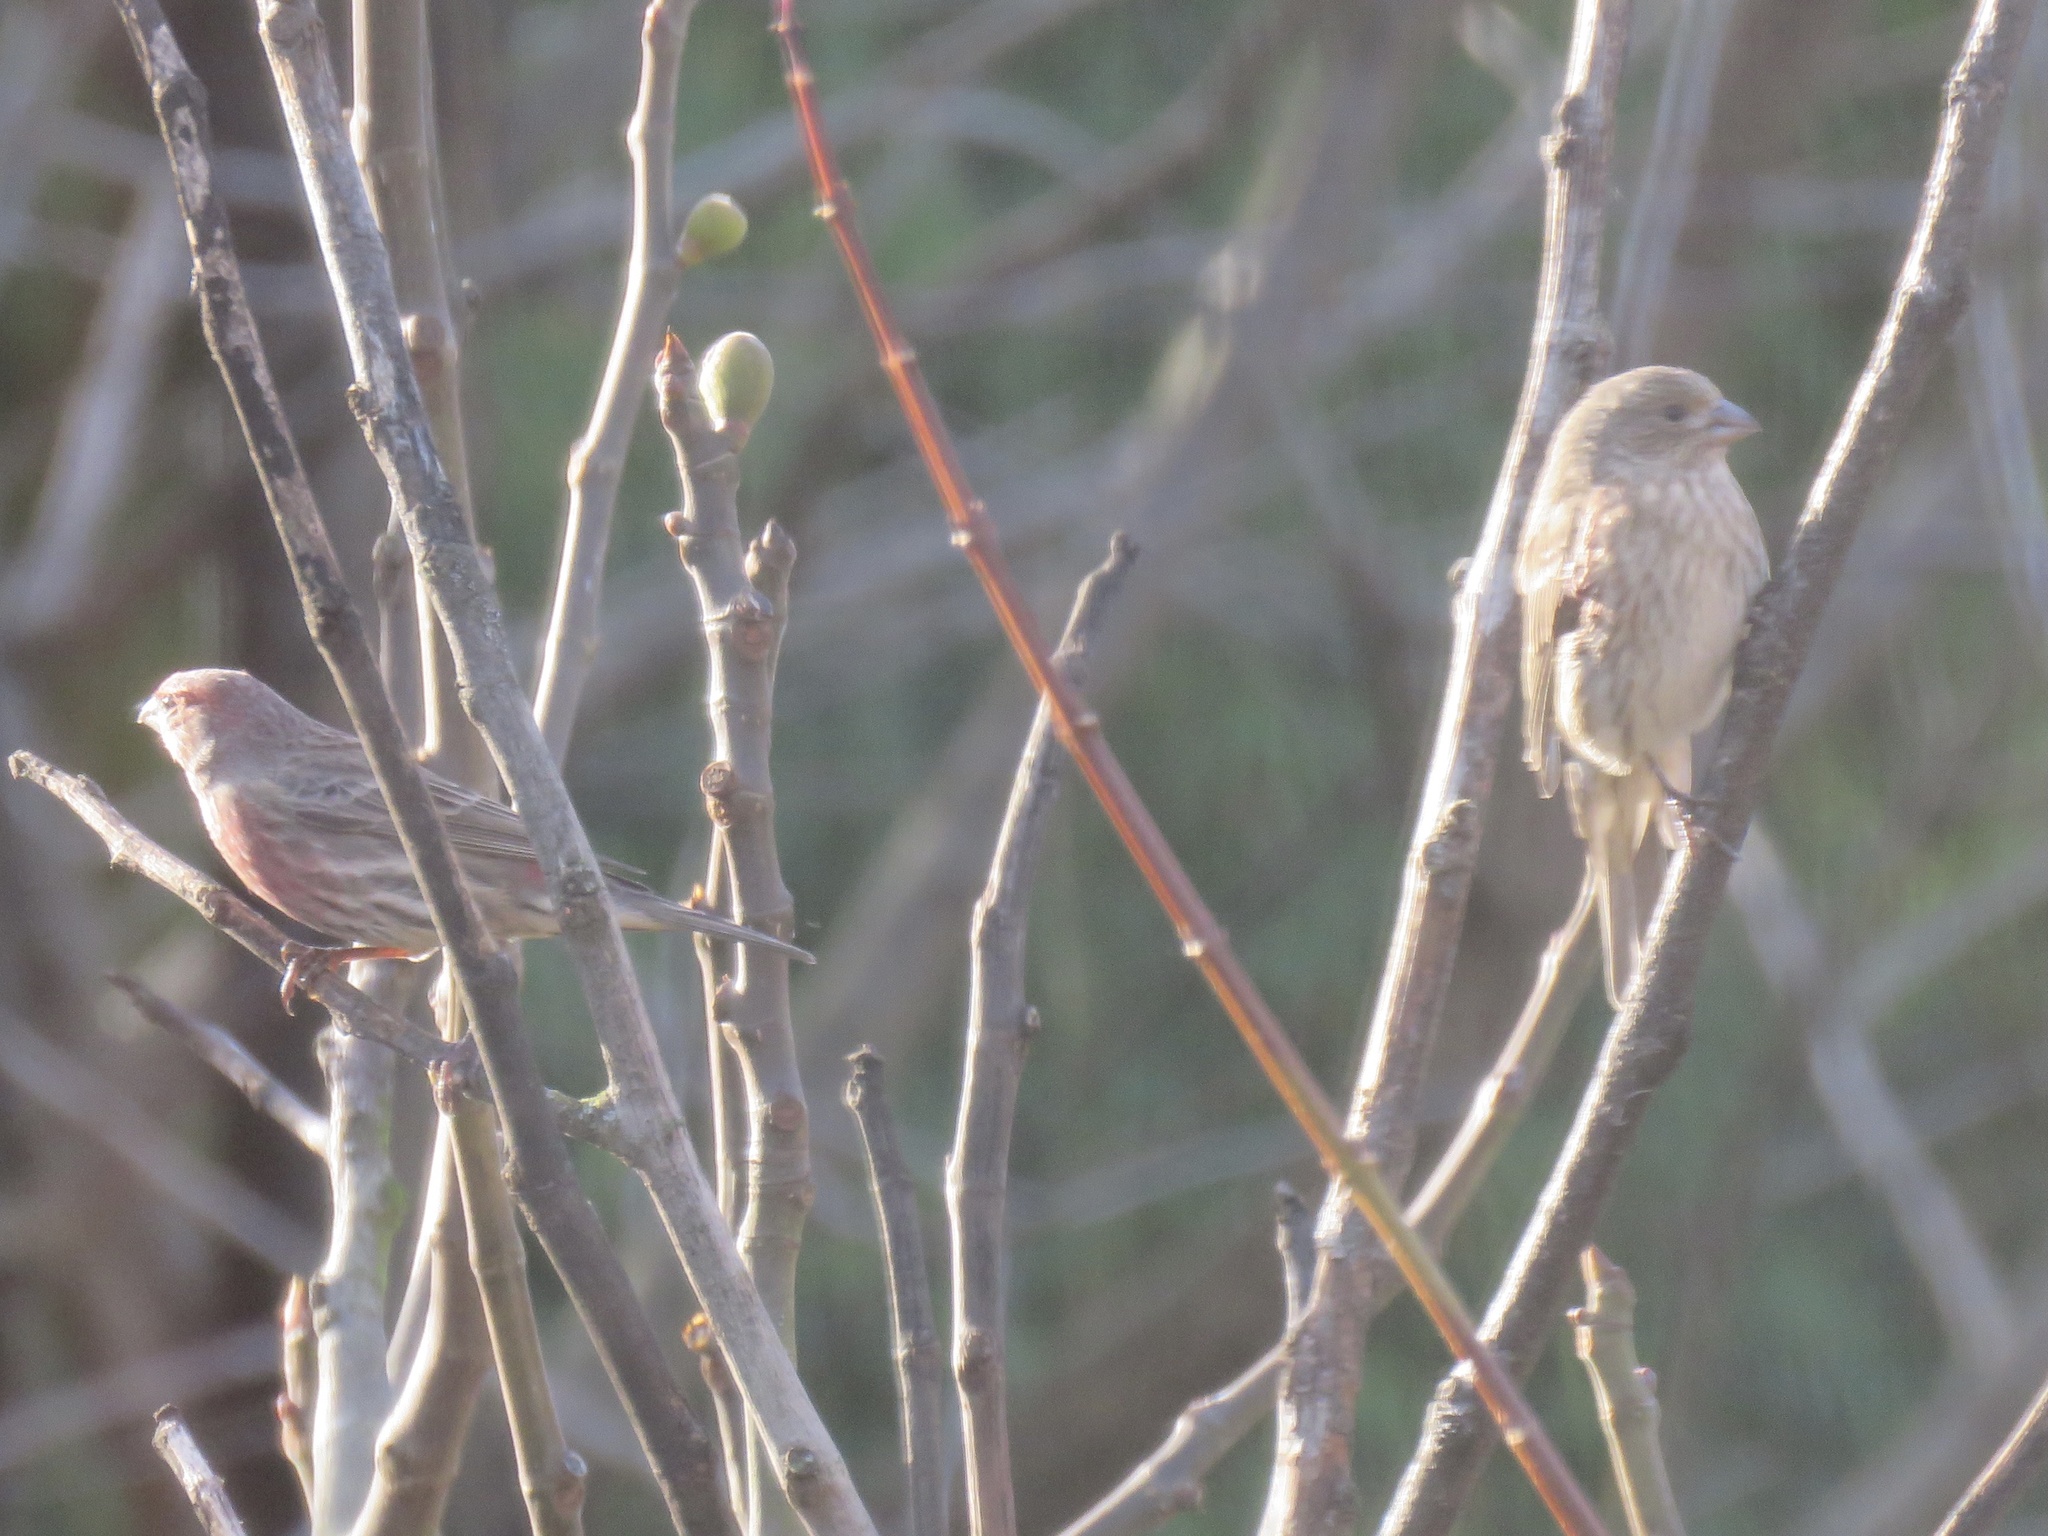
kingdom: Animalia
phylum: Chordata
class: Aves
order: Passeriformes
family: Fringillidae
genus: Haemorhous
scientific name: Haemorhous mexicanus
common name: House finch
